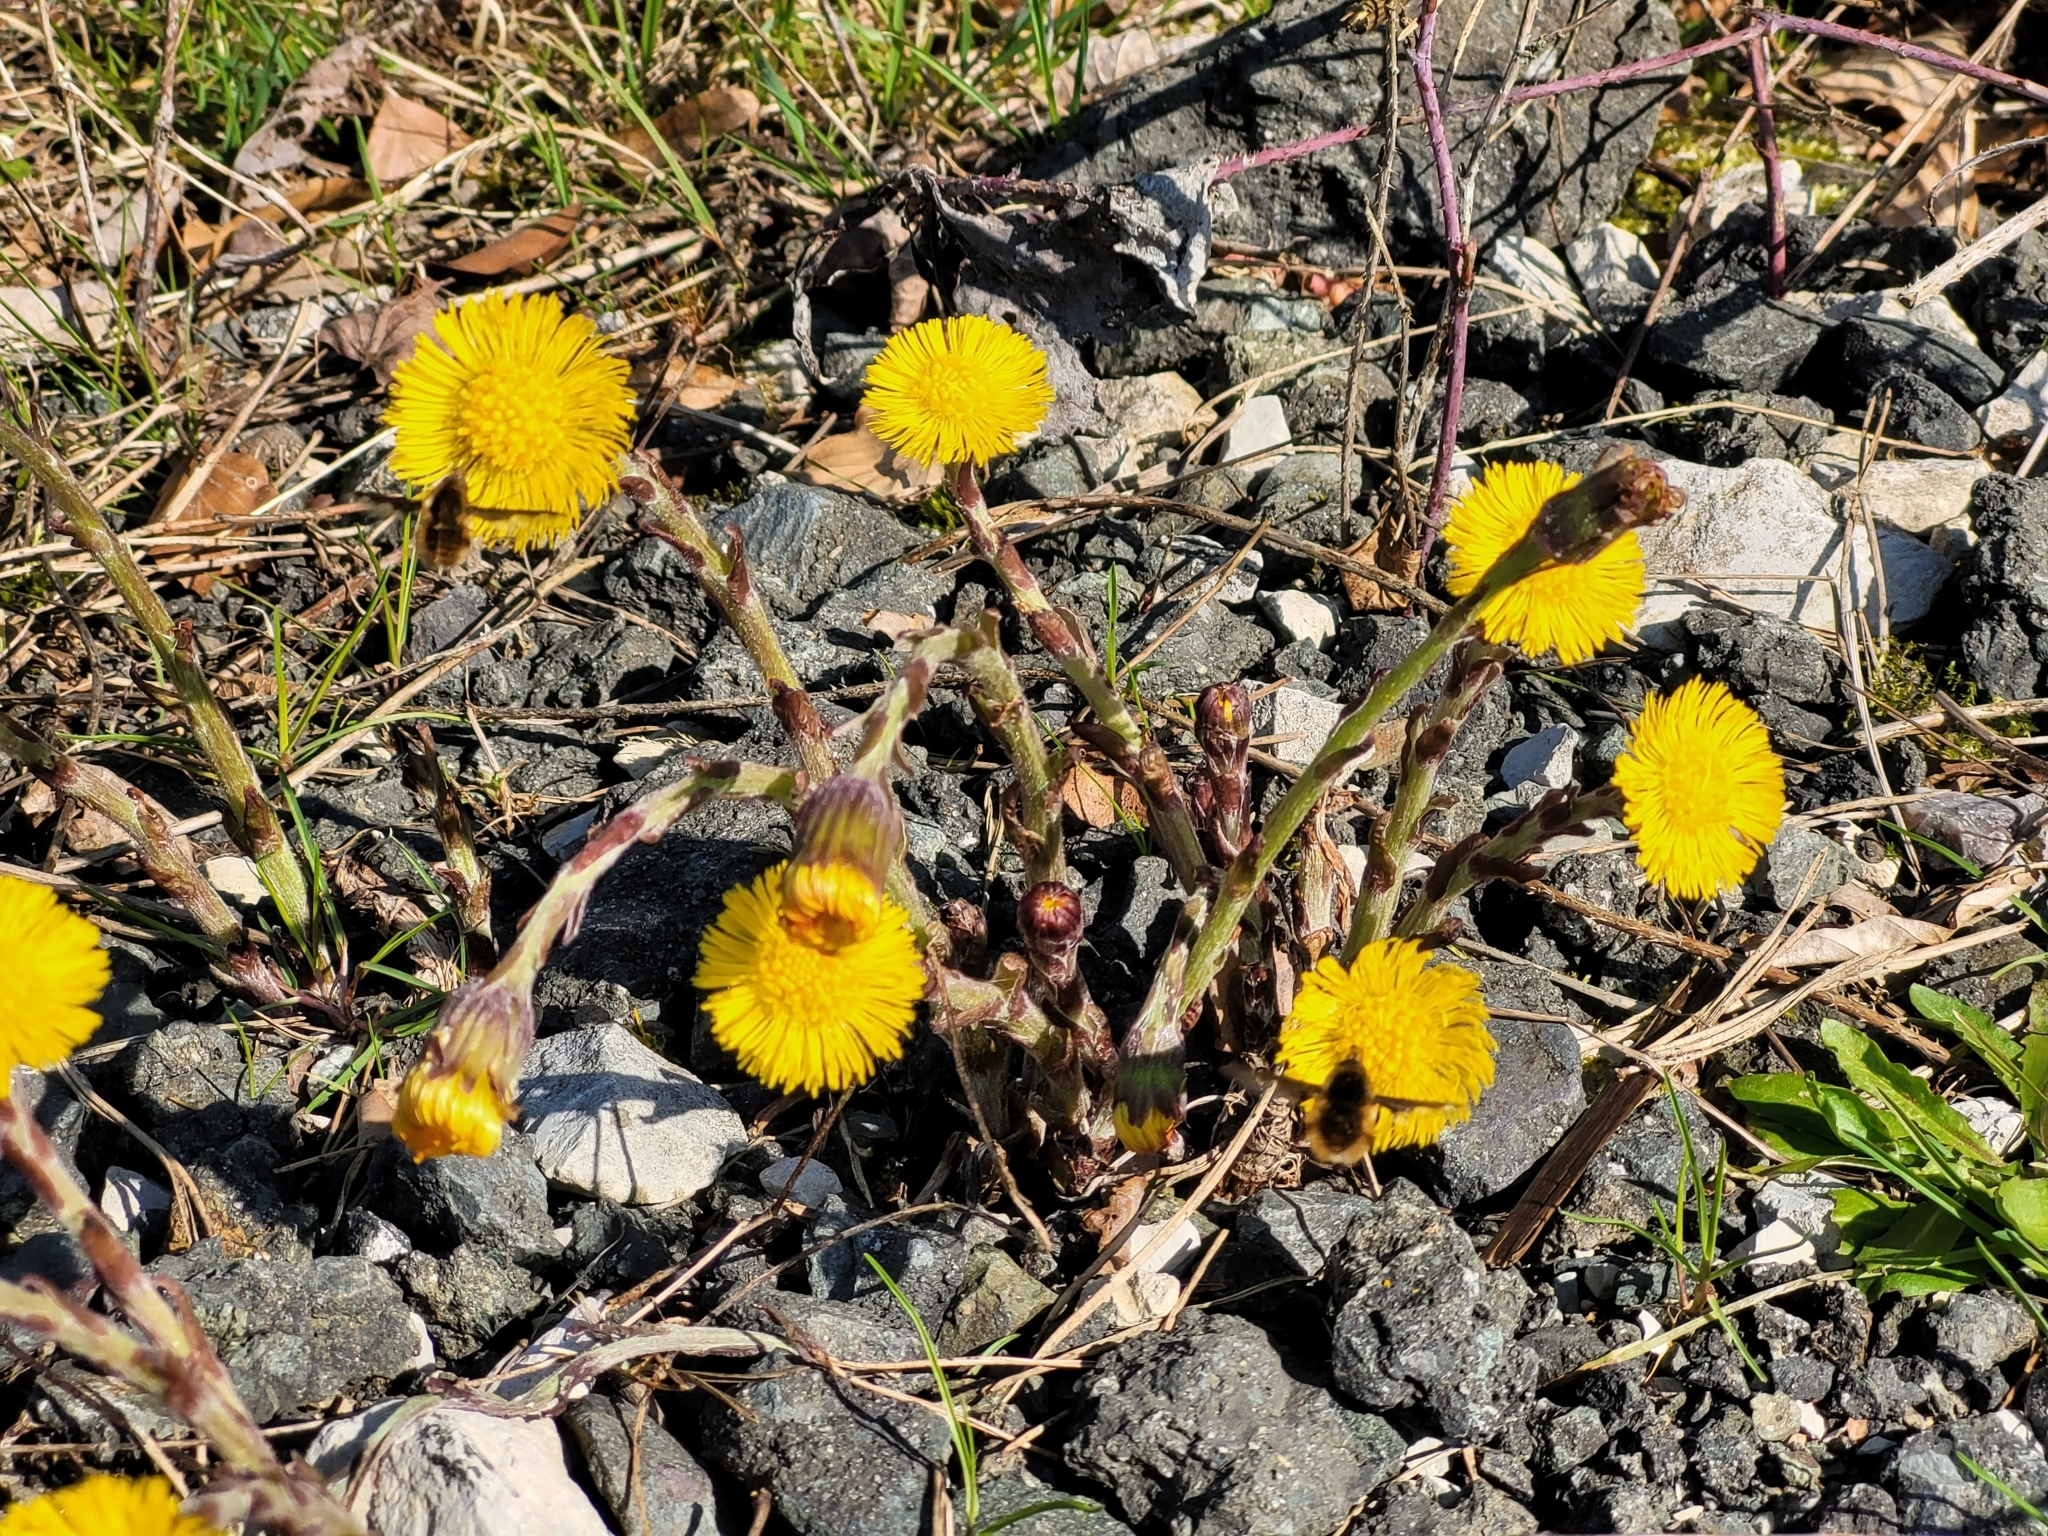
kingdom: Plantae
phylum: Tracheophyta
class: Magnoliopsida
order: Asterales
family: Asteraceae
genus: Tussilago
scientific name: Tussilago farfara
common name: Coltsfoot
